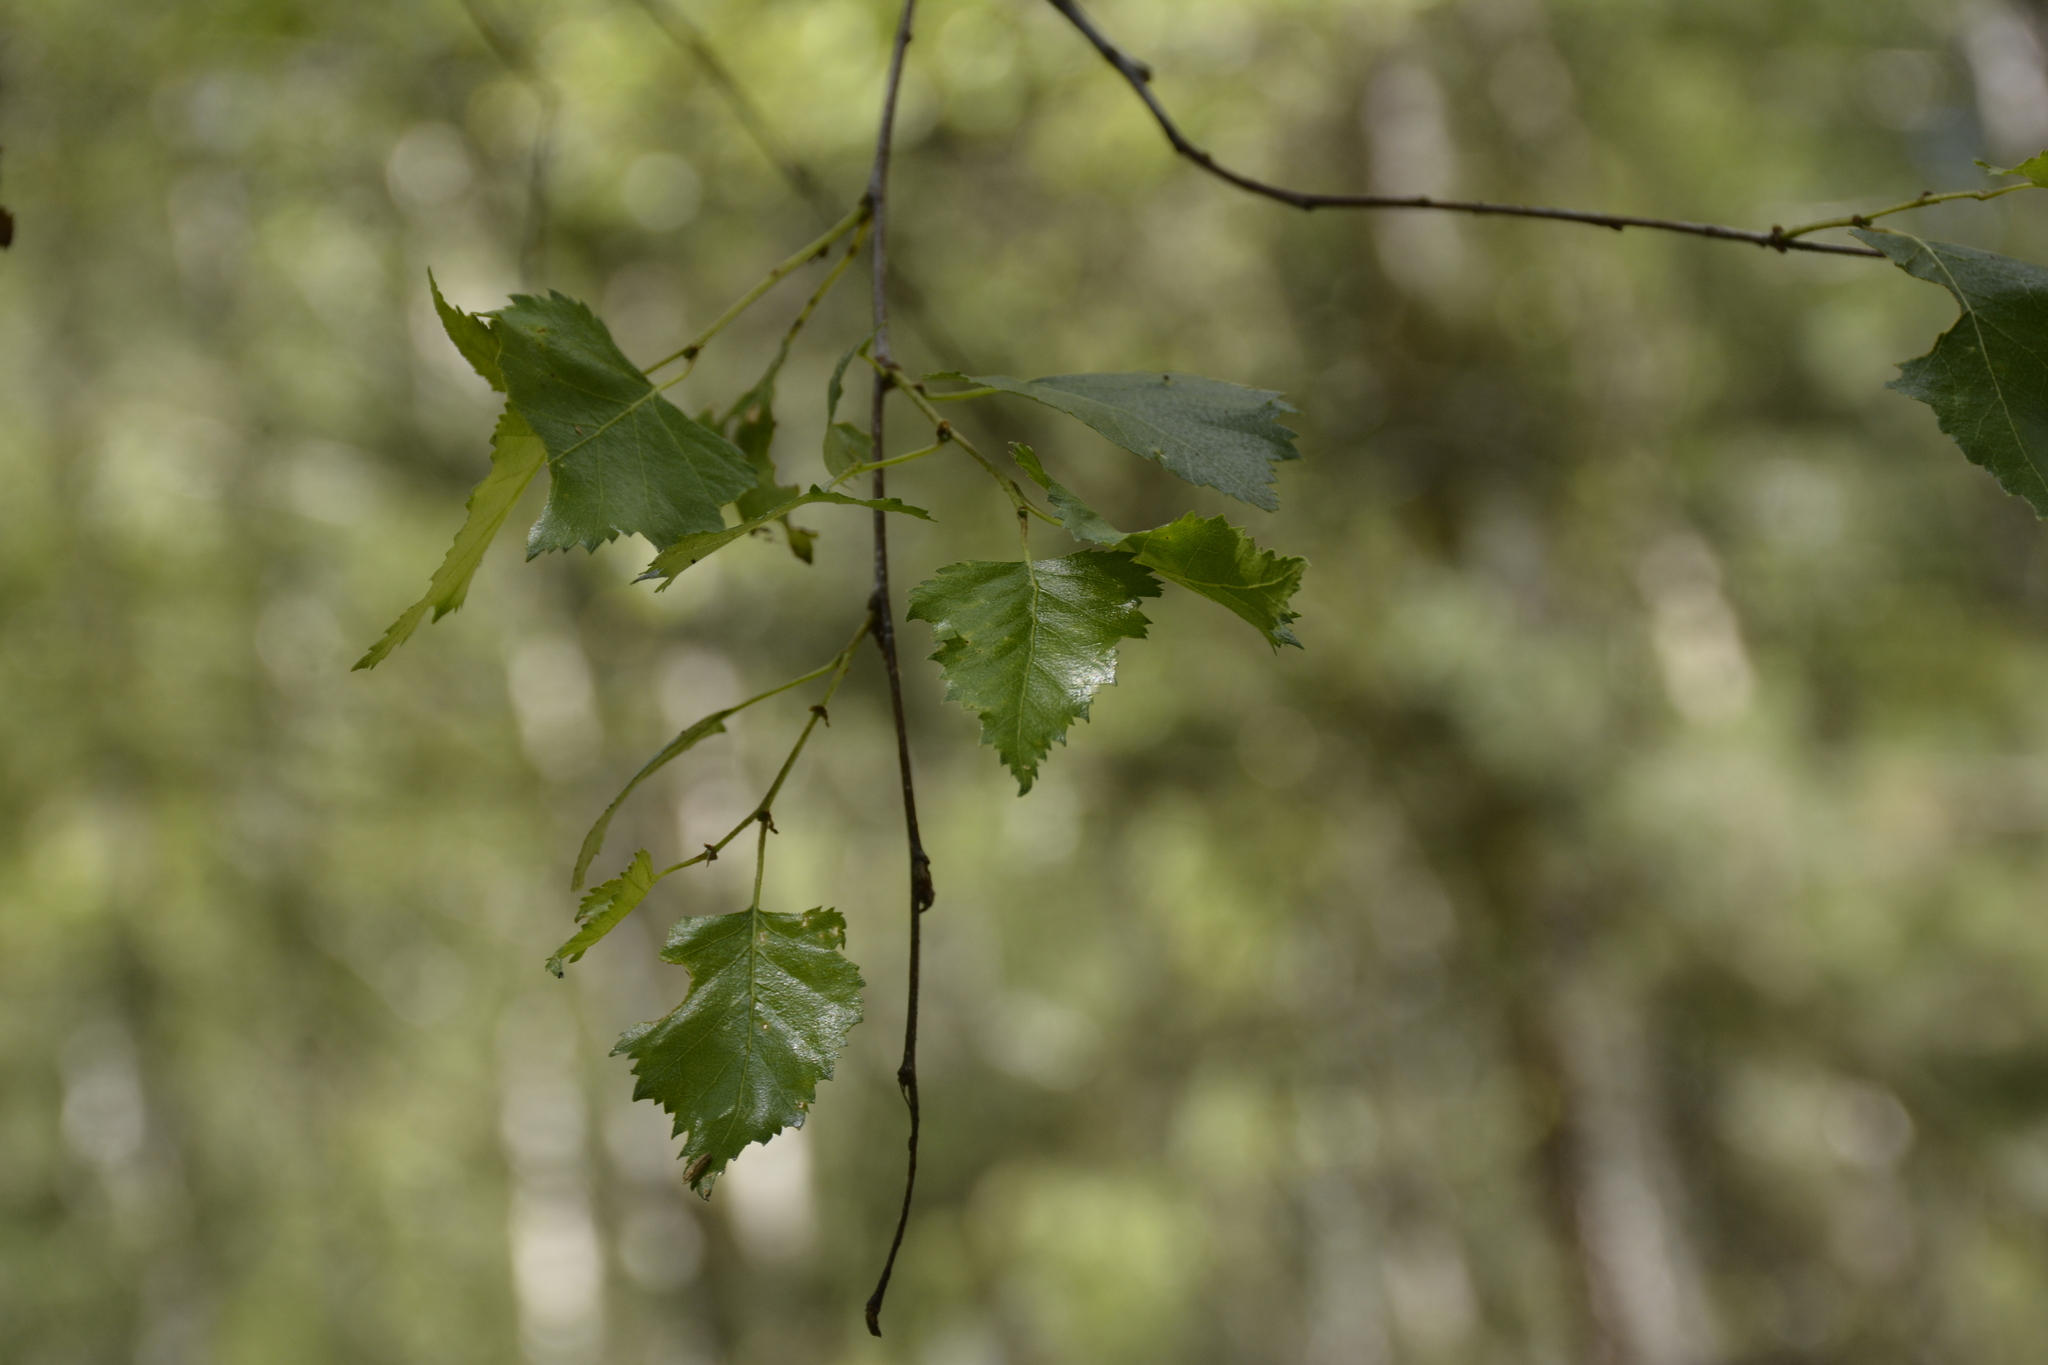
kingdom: Plantae
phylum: Tracheophyta
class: Magnoliopsida
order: Fagales
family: Betulaceae
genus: Betula
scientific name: Betula pendula
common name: Silver birch
